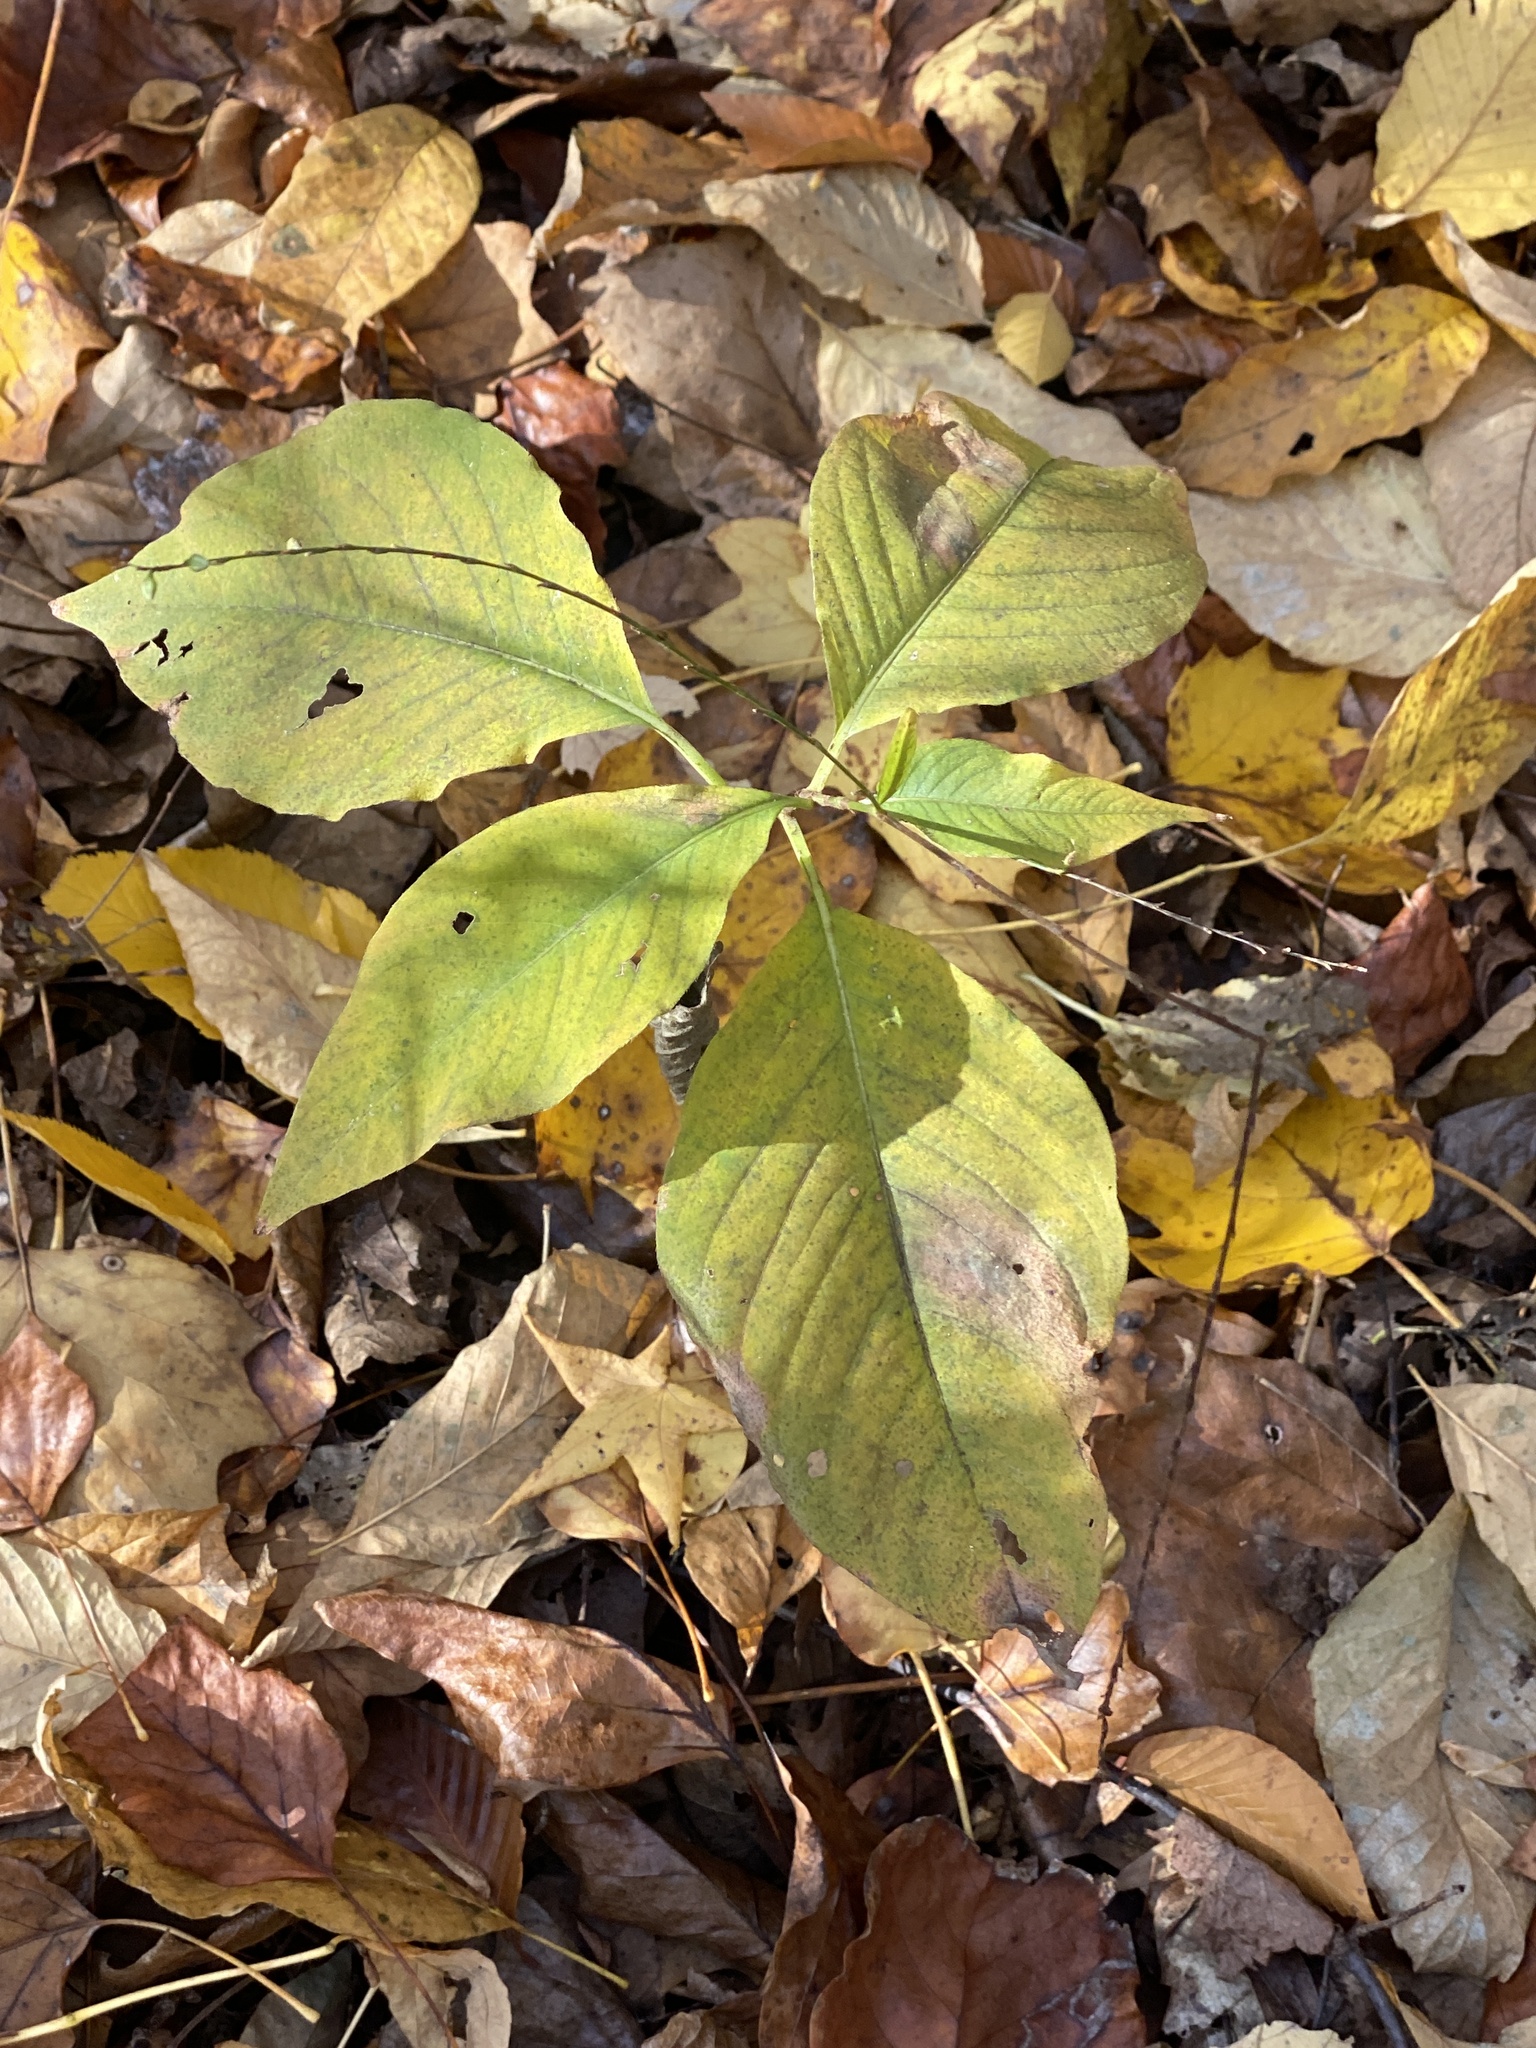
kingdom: Plantae
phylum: Tracheophyta
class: Magnoliopsida
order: Caryophyllales
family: Polygonaceae
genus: Persicaria
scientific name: Persicaria virginiana
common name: Jumpseed
